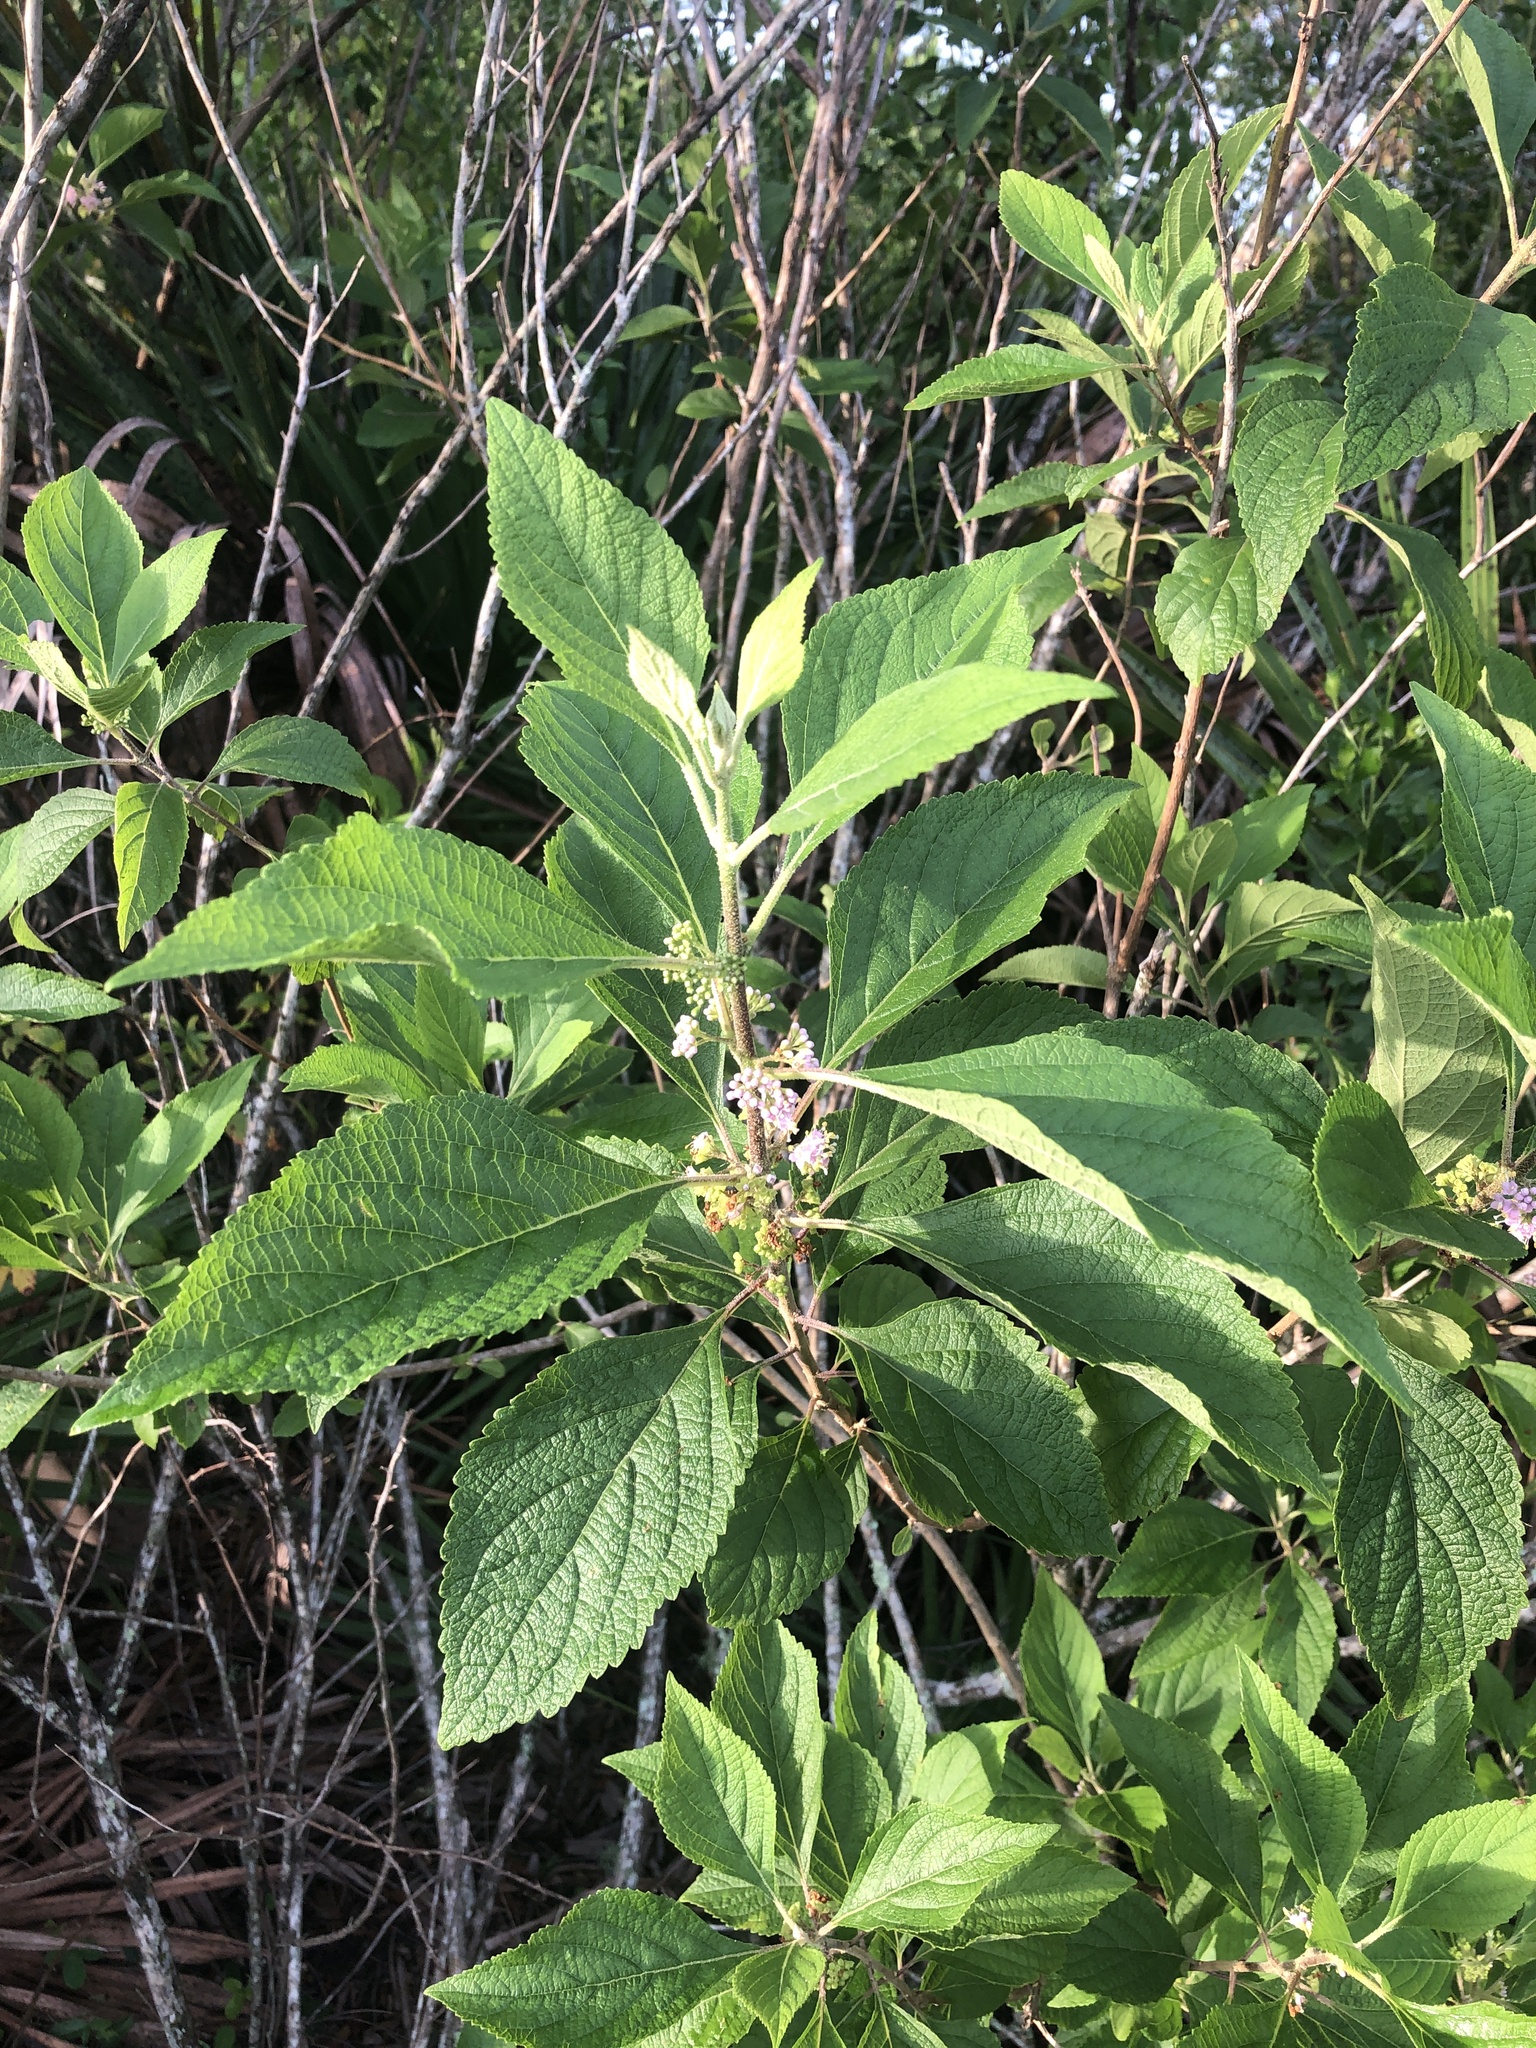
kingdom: Plantae
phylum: Tracheophyta
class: Magnoliopsida
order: Lamiales
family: Lamiaceae
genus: Callicarpa
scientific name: Callicarpa americana
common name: American beautyberry
